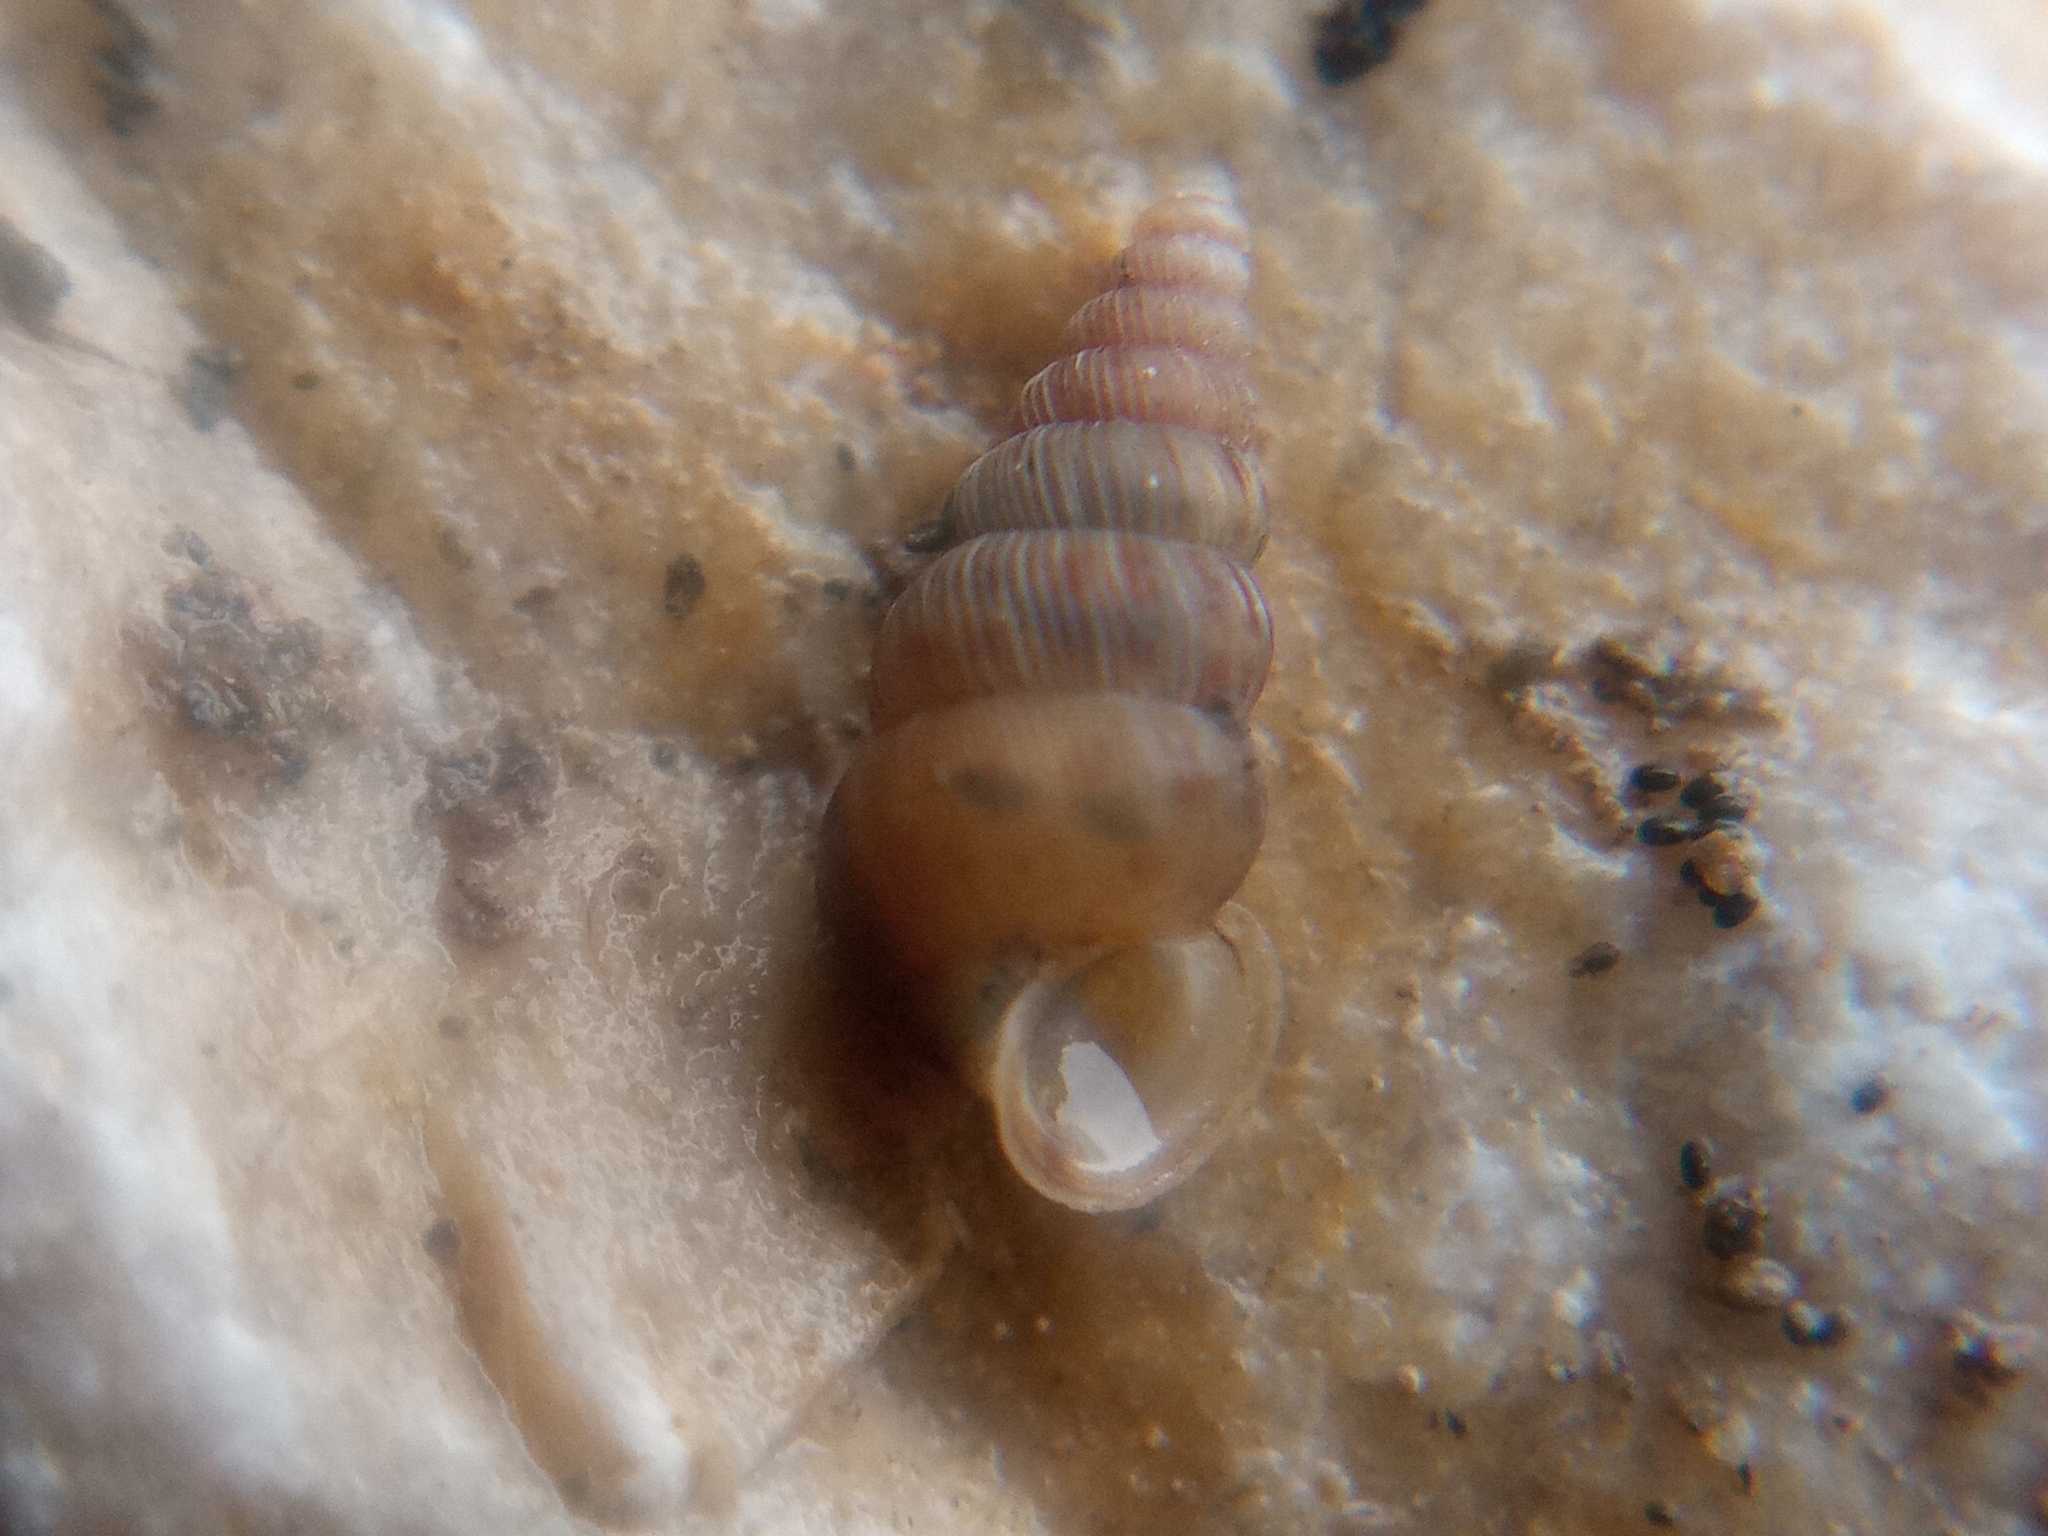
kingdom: Animalia
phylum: Mollusca
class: Gastropoda
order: Architaenioglossa
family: Cochlostomatidae
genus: Cochlostoma
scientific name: Cochlostoma septemspirale
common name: Seven-whorl snail
